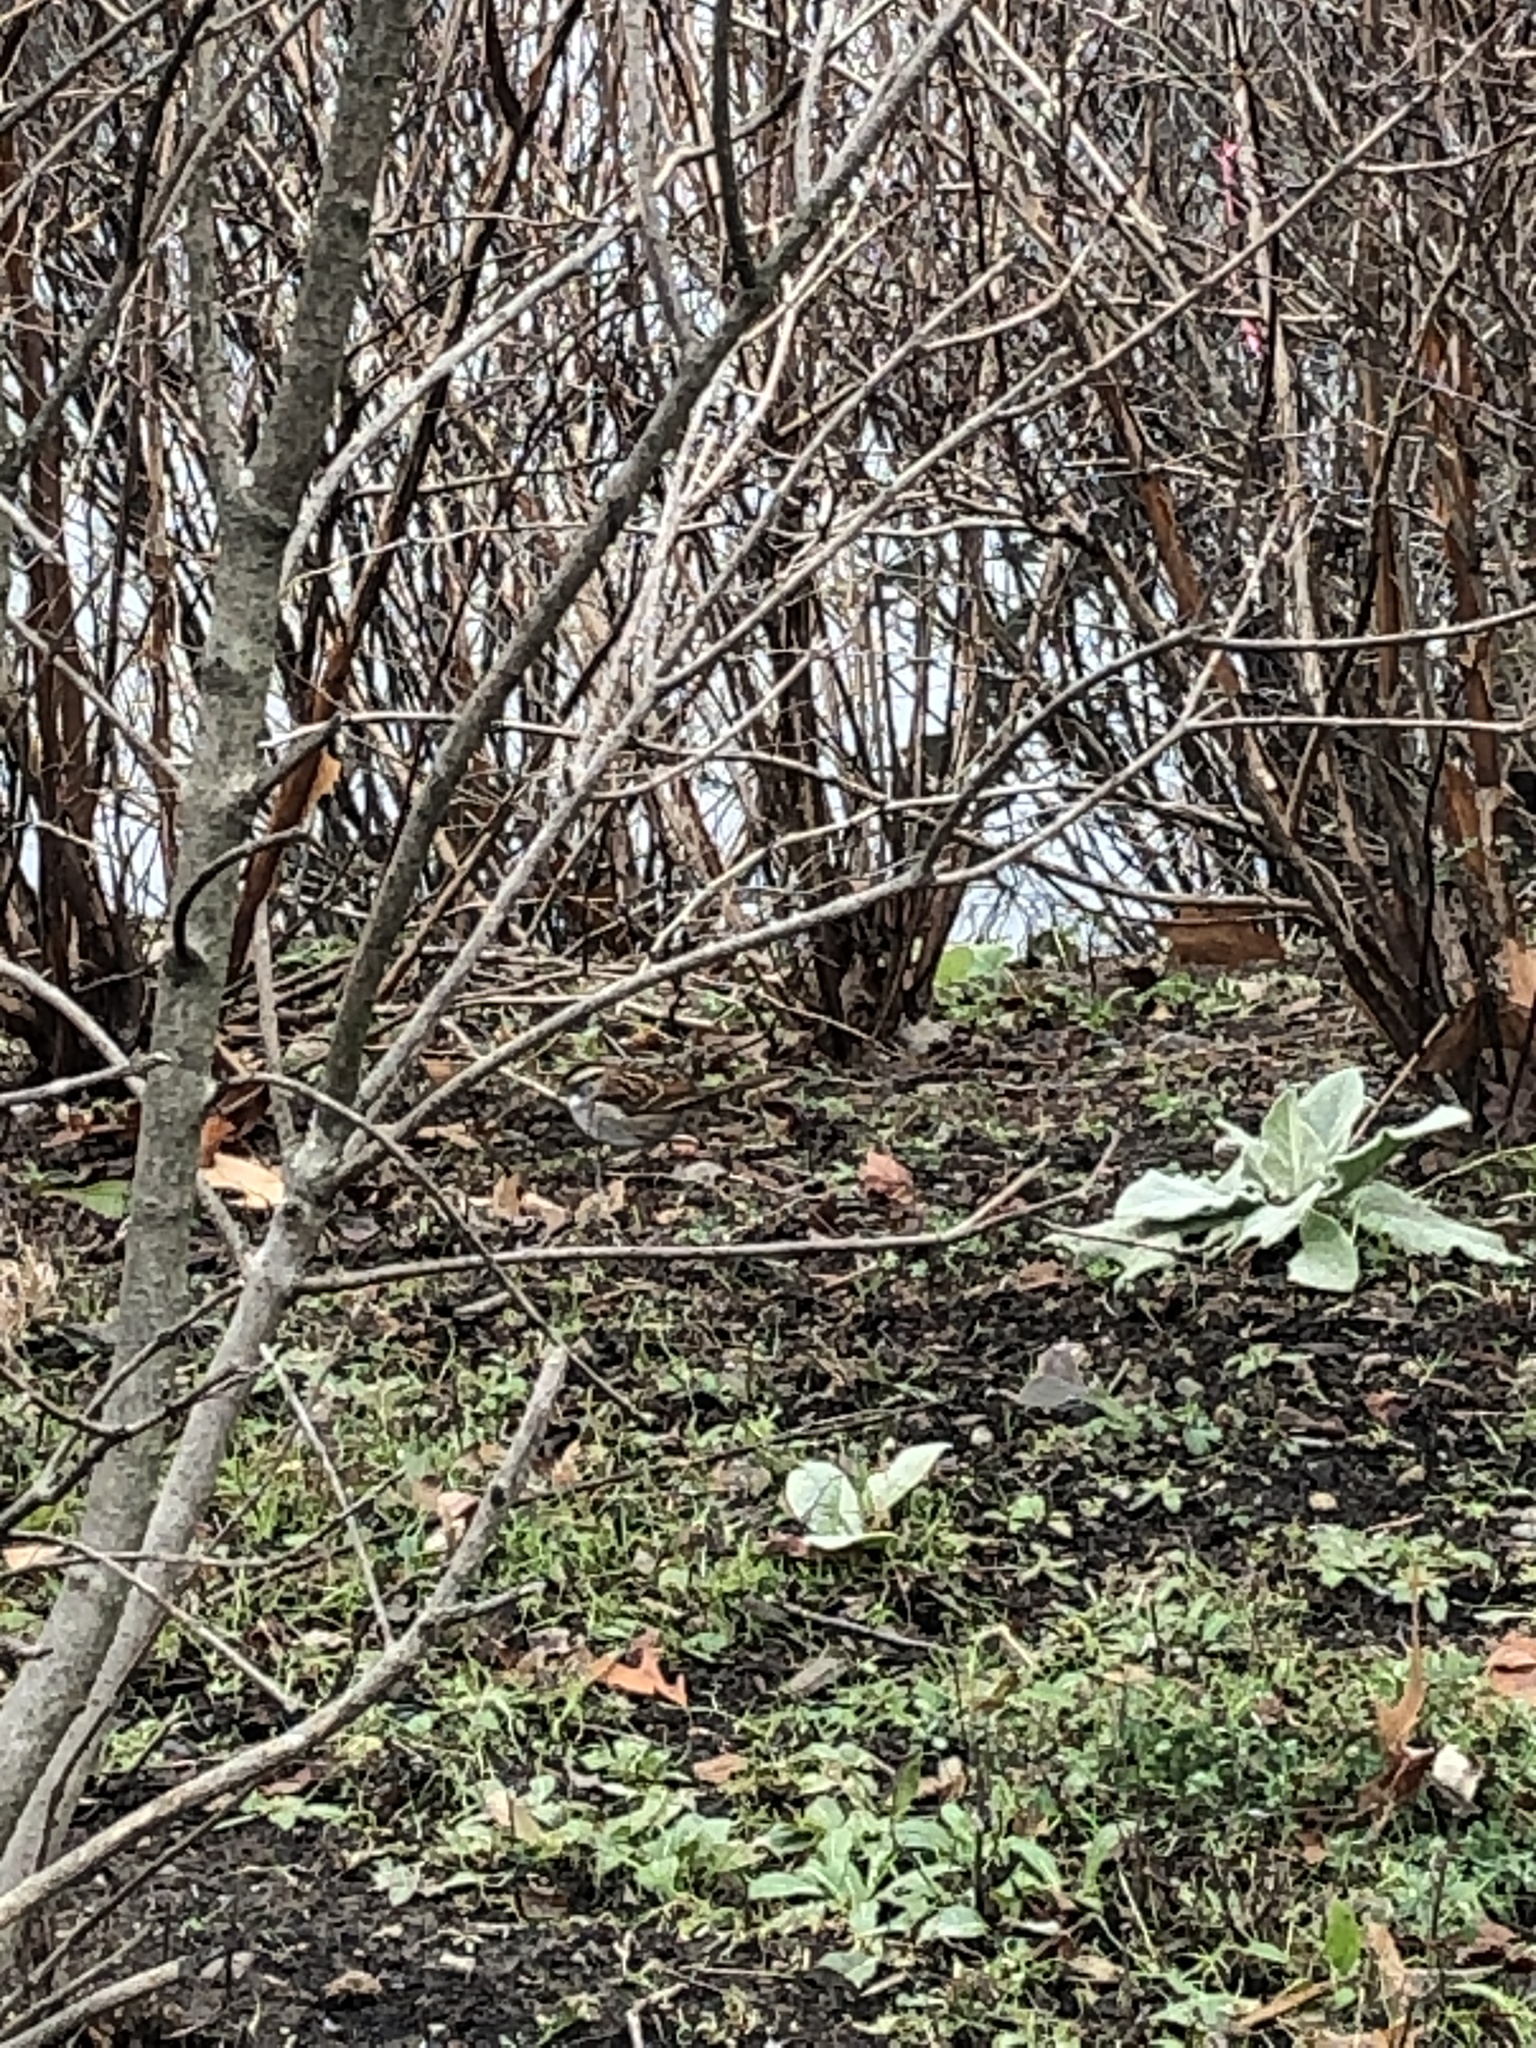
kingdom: Animalia
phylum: Chordata
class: Aves
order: Passeriformes
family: Passerellidae
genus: Zonotrichia
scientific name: Zonotrichia albicollis
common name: White-throated sparrow
